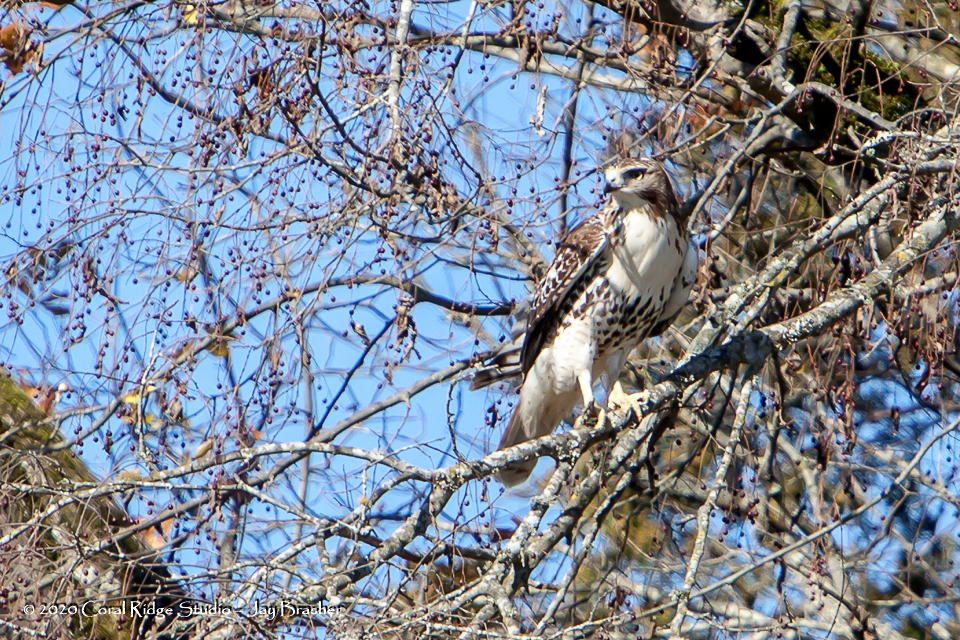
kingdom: Animalia
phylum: Chordata
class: Aves
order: Accipitriformes
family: Accipitridae
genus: Buteo
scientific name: Buteo jamaicensis
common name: Red-tailed hawk
